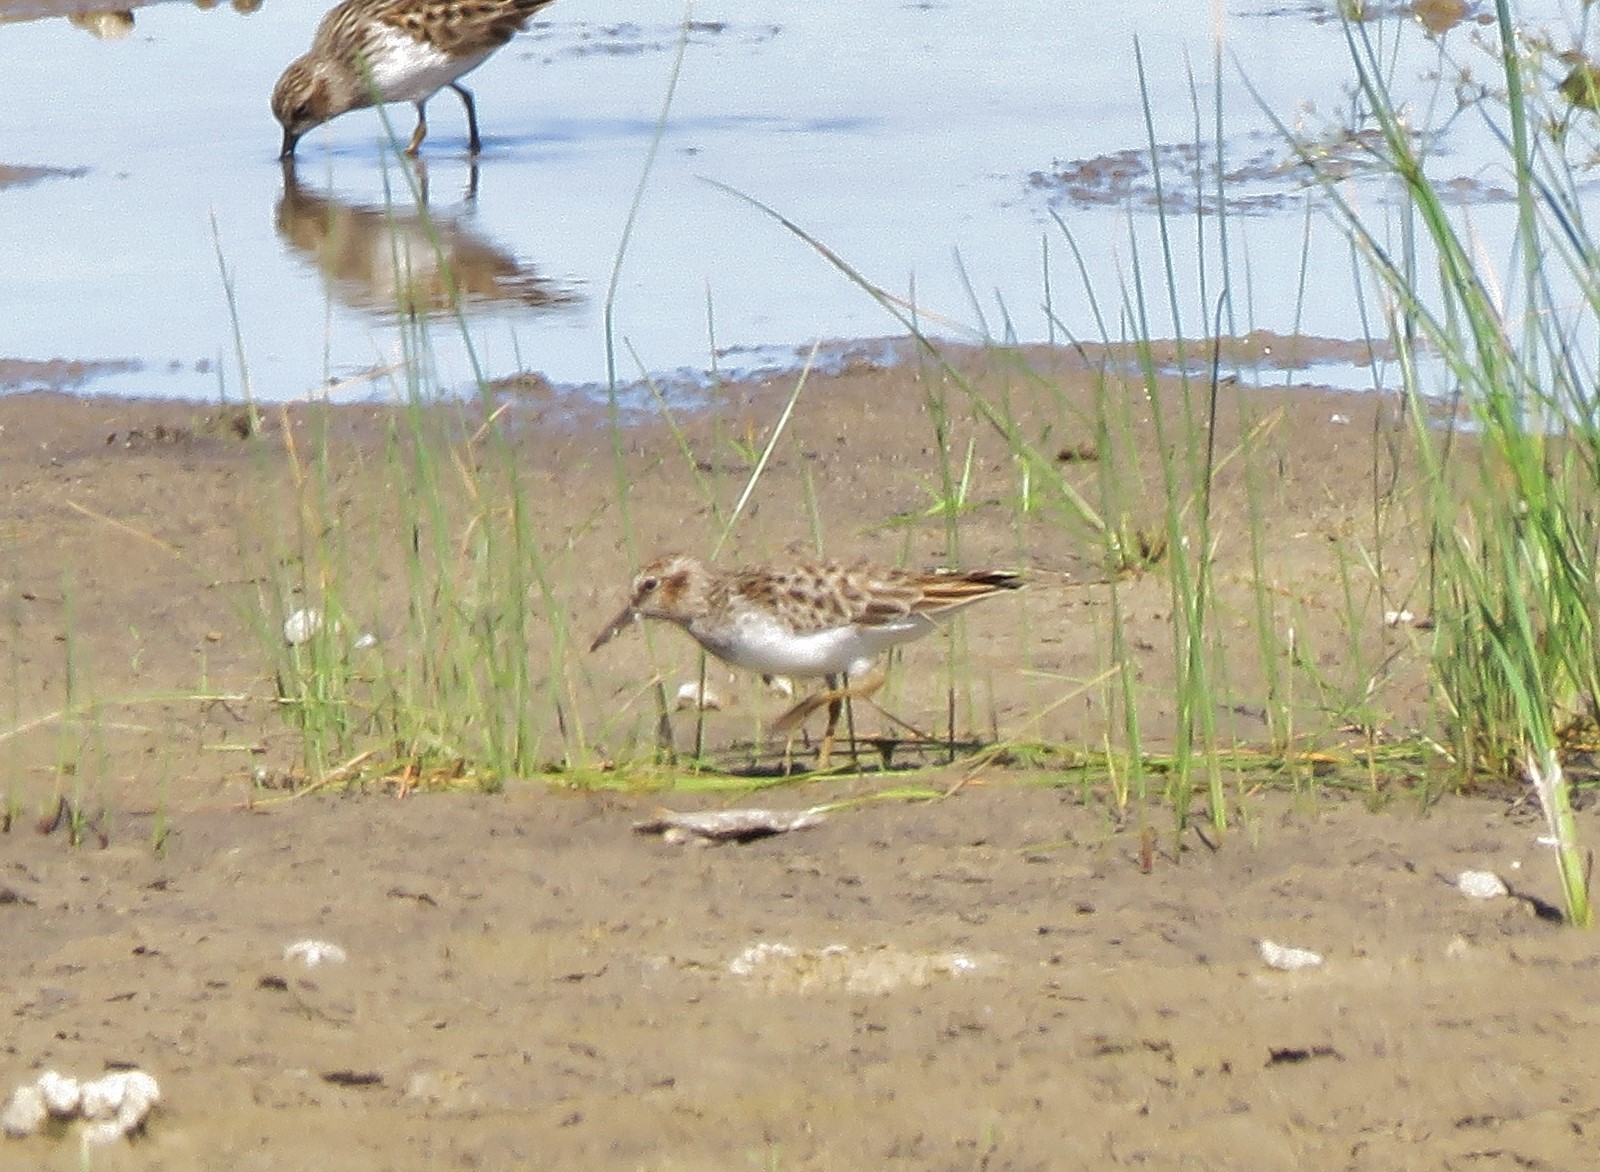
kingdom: Animalia
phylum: Chordata
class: Aves
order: Charadriiformes
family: Scolopacidae
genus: Calidris
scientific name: Calidris minutilla
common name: Least sandpiper
